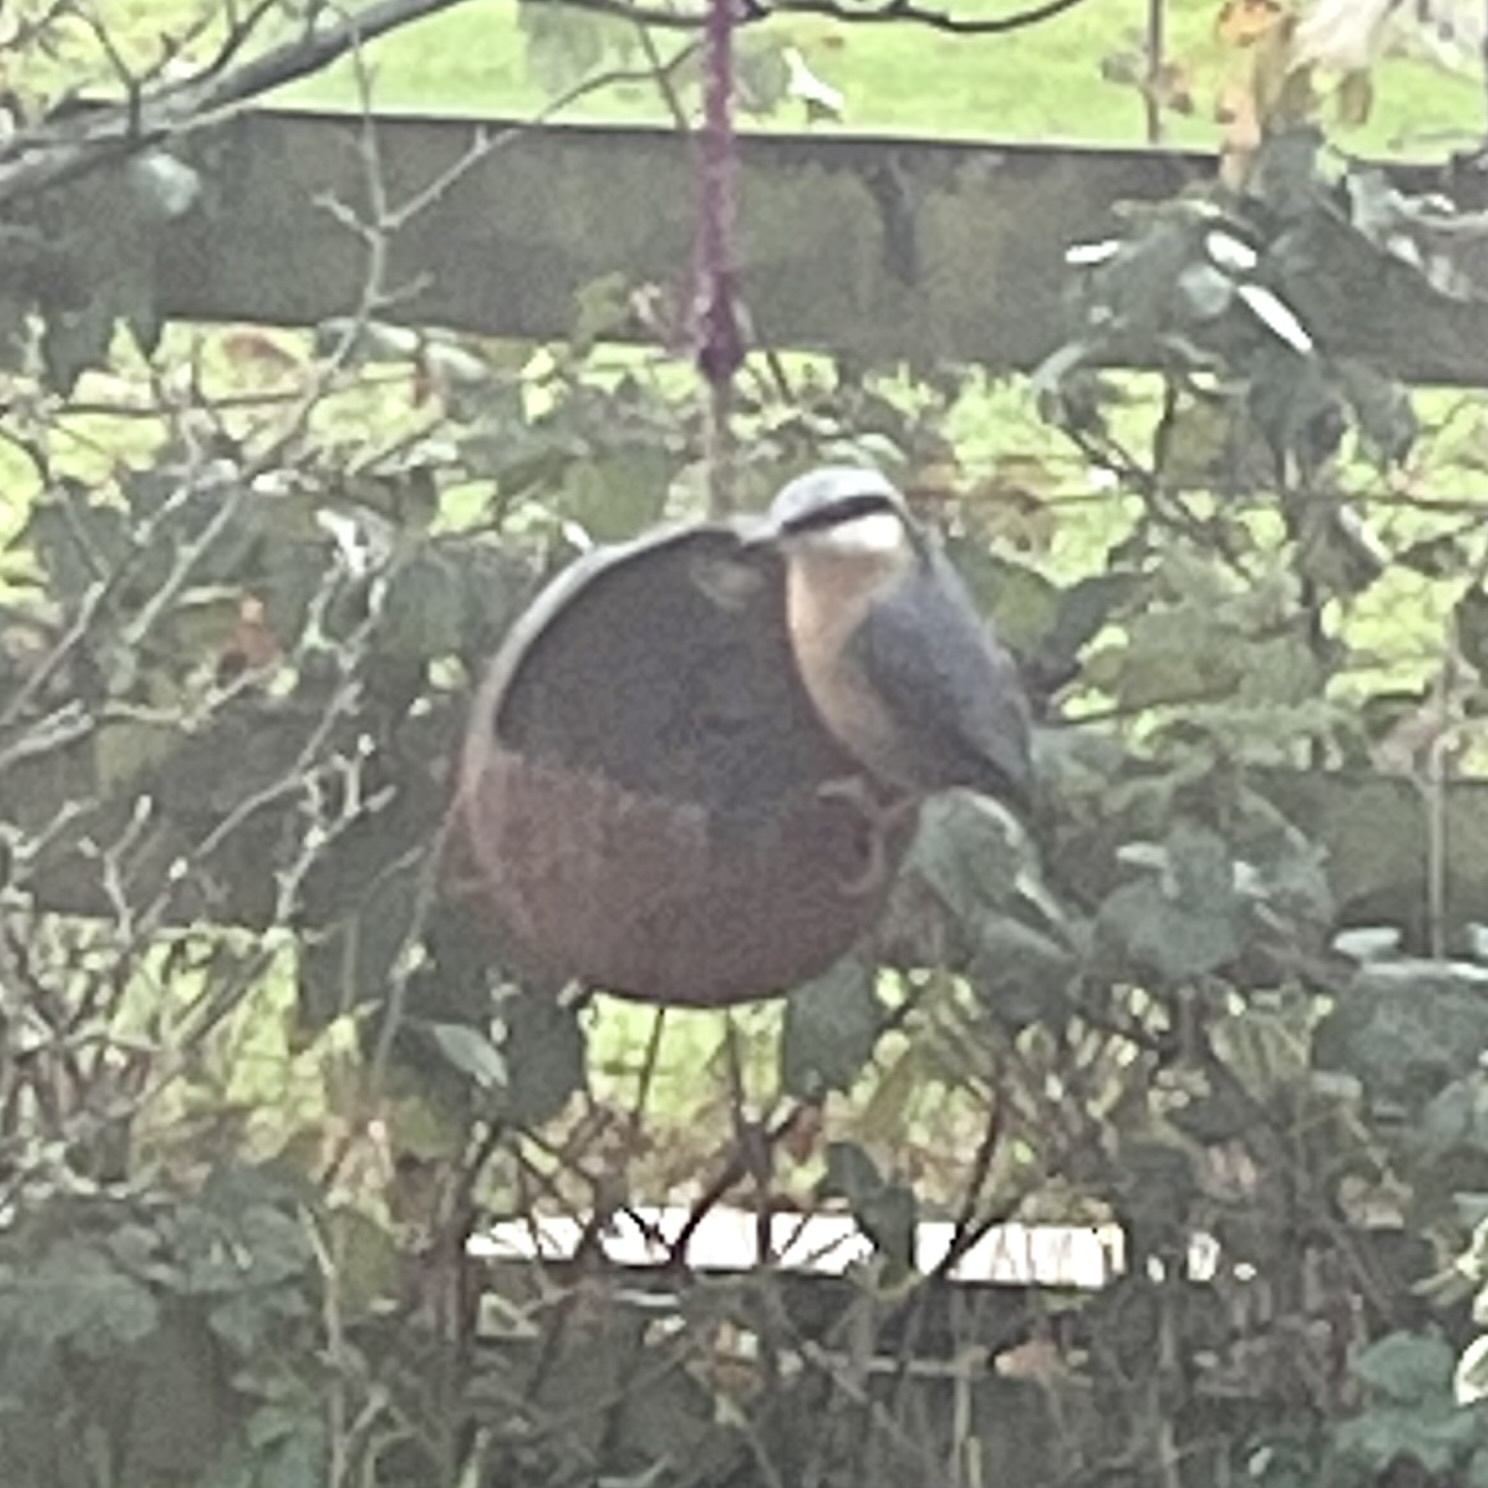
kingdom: Animalia
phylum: Chordata
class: Aves
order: Passeriformes
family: Sittidae
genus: Sitta
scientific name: Sitta europaea
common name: Eurasian nuthatch
